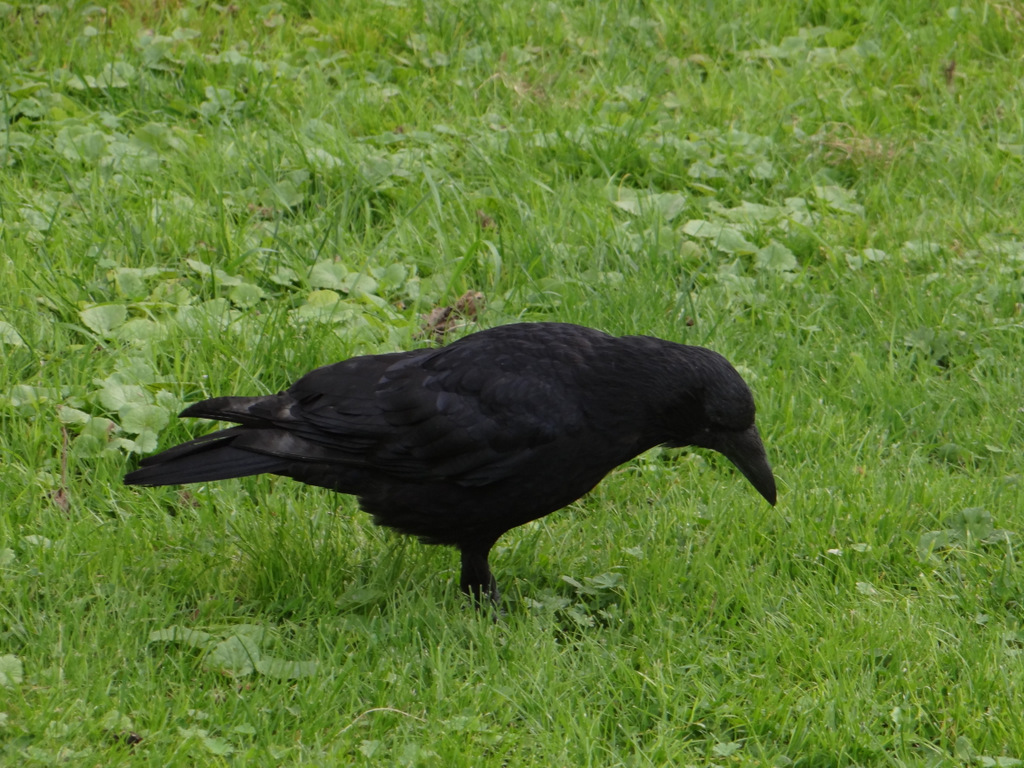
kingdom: Animalia
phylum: Chordata
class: Aves
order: Passeriformes
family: Corvidae
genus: Corvus
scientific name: Corvus corone
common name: Carrion crow
